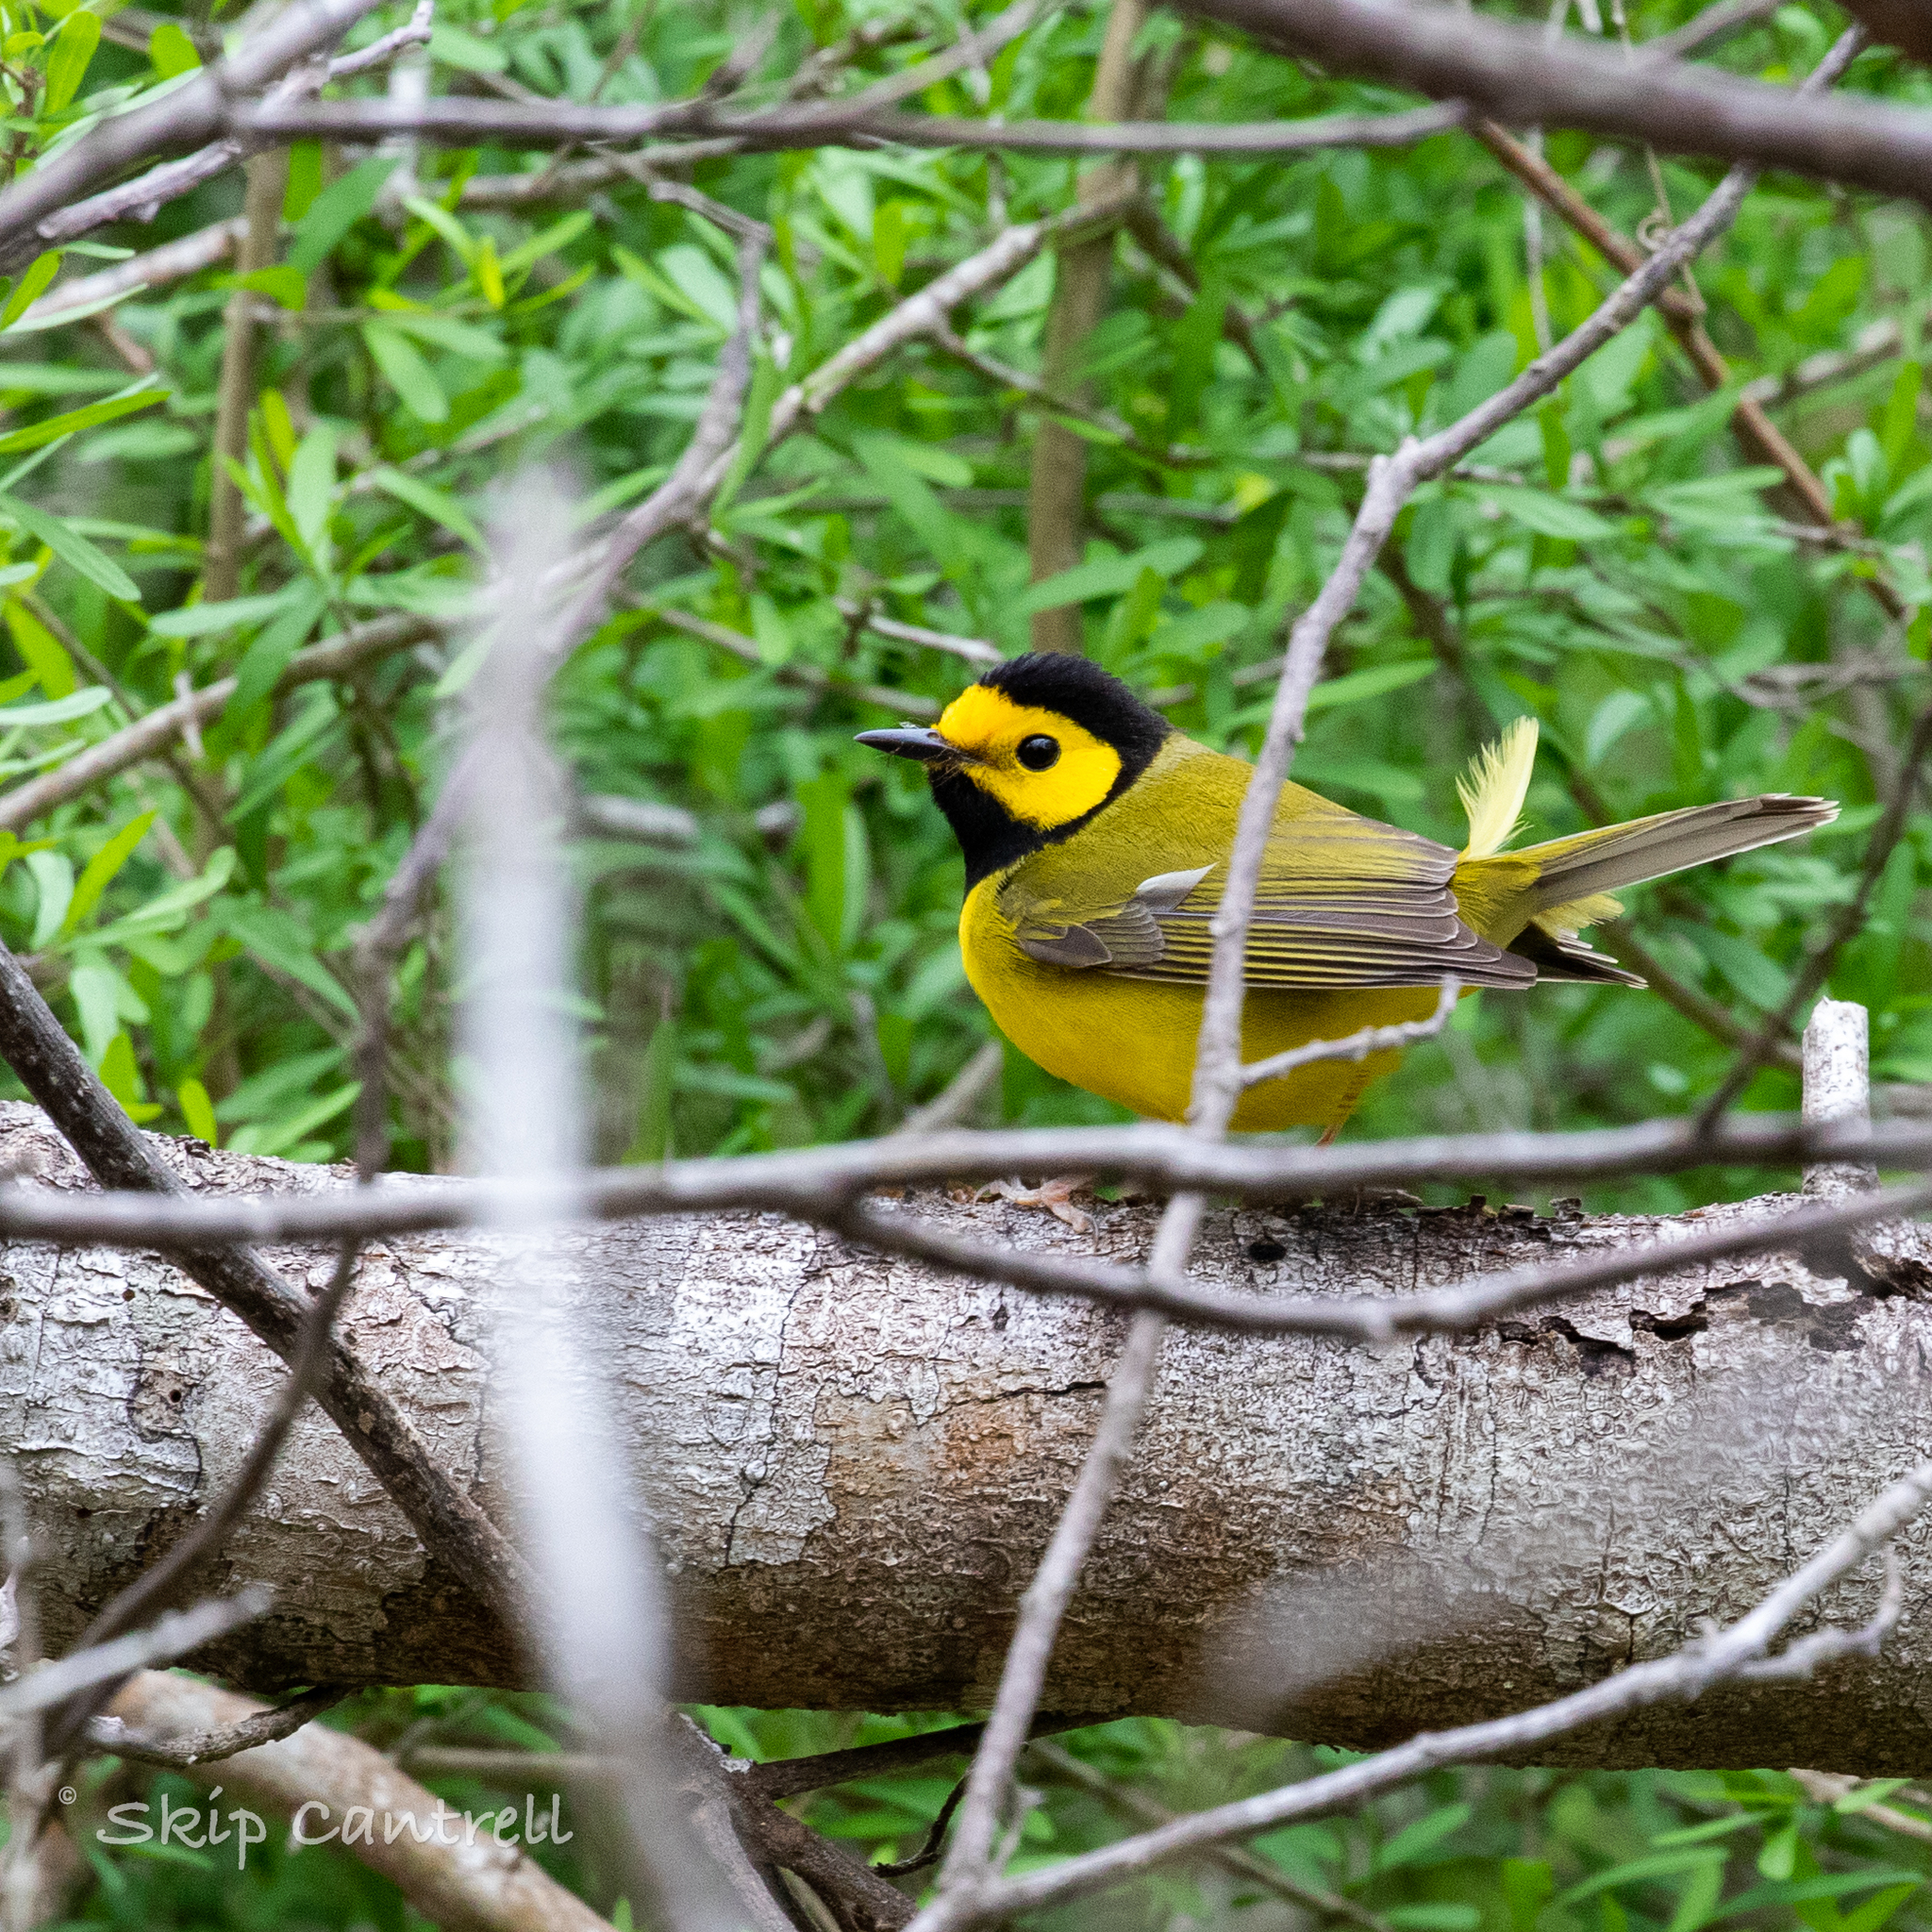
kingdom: Animalia
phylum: Chordata
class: Aves
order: Passeriformes
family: Parulidae
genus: Setophaga
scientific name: Setophaga citrina
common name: Hooded warbler
